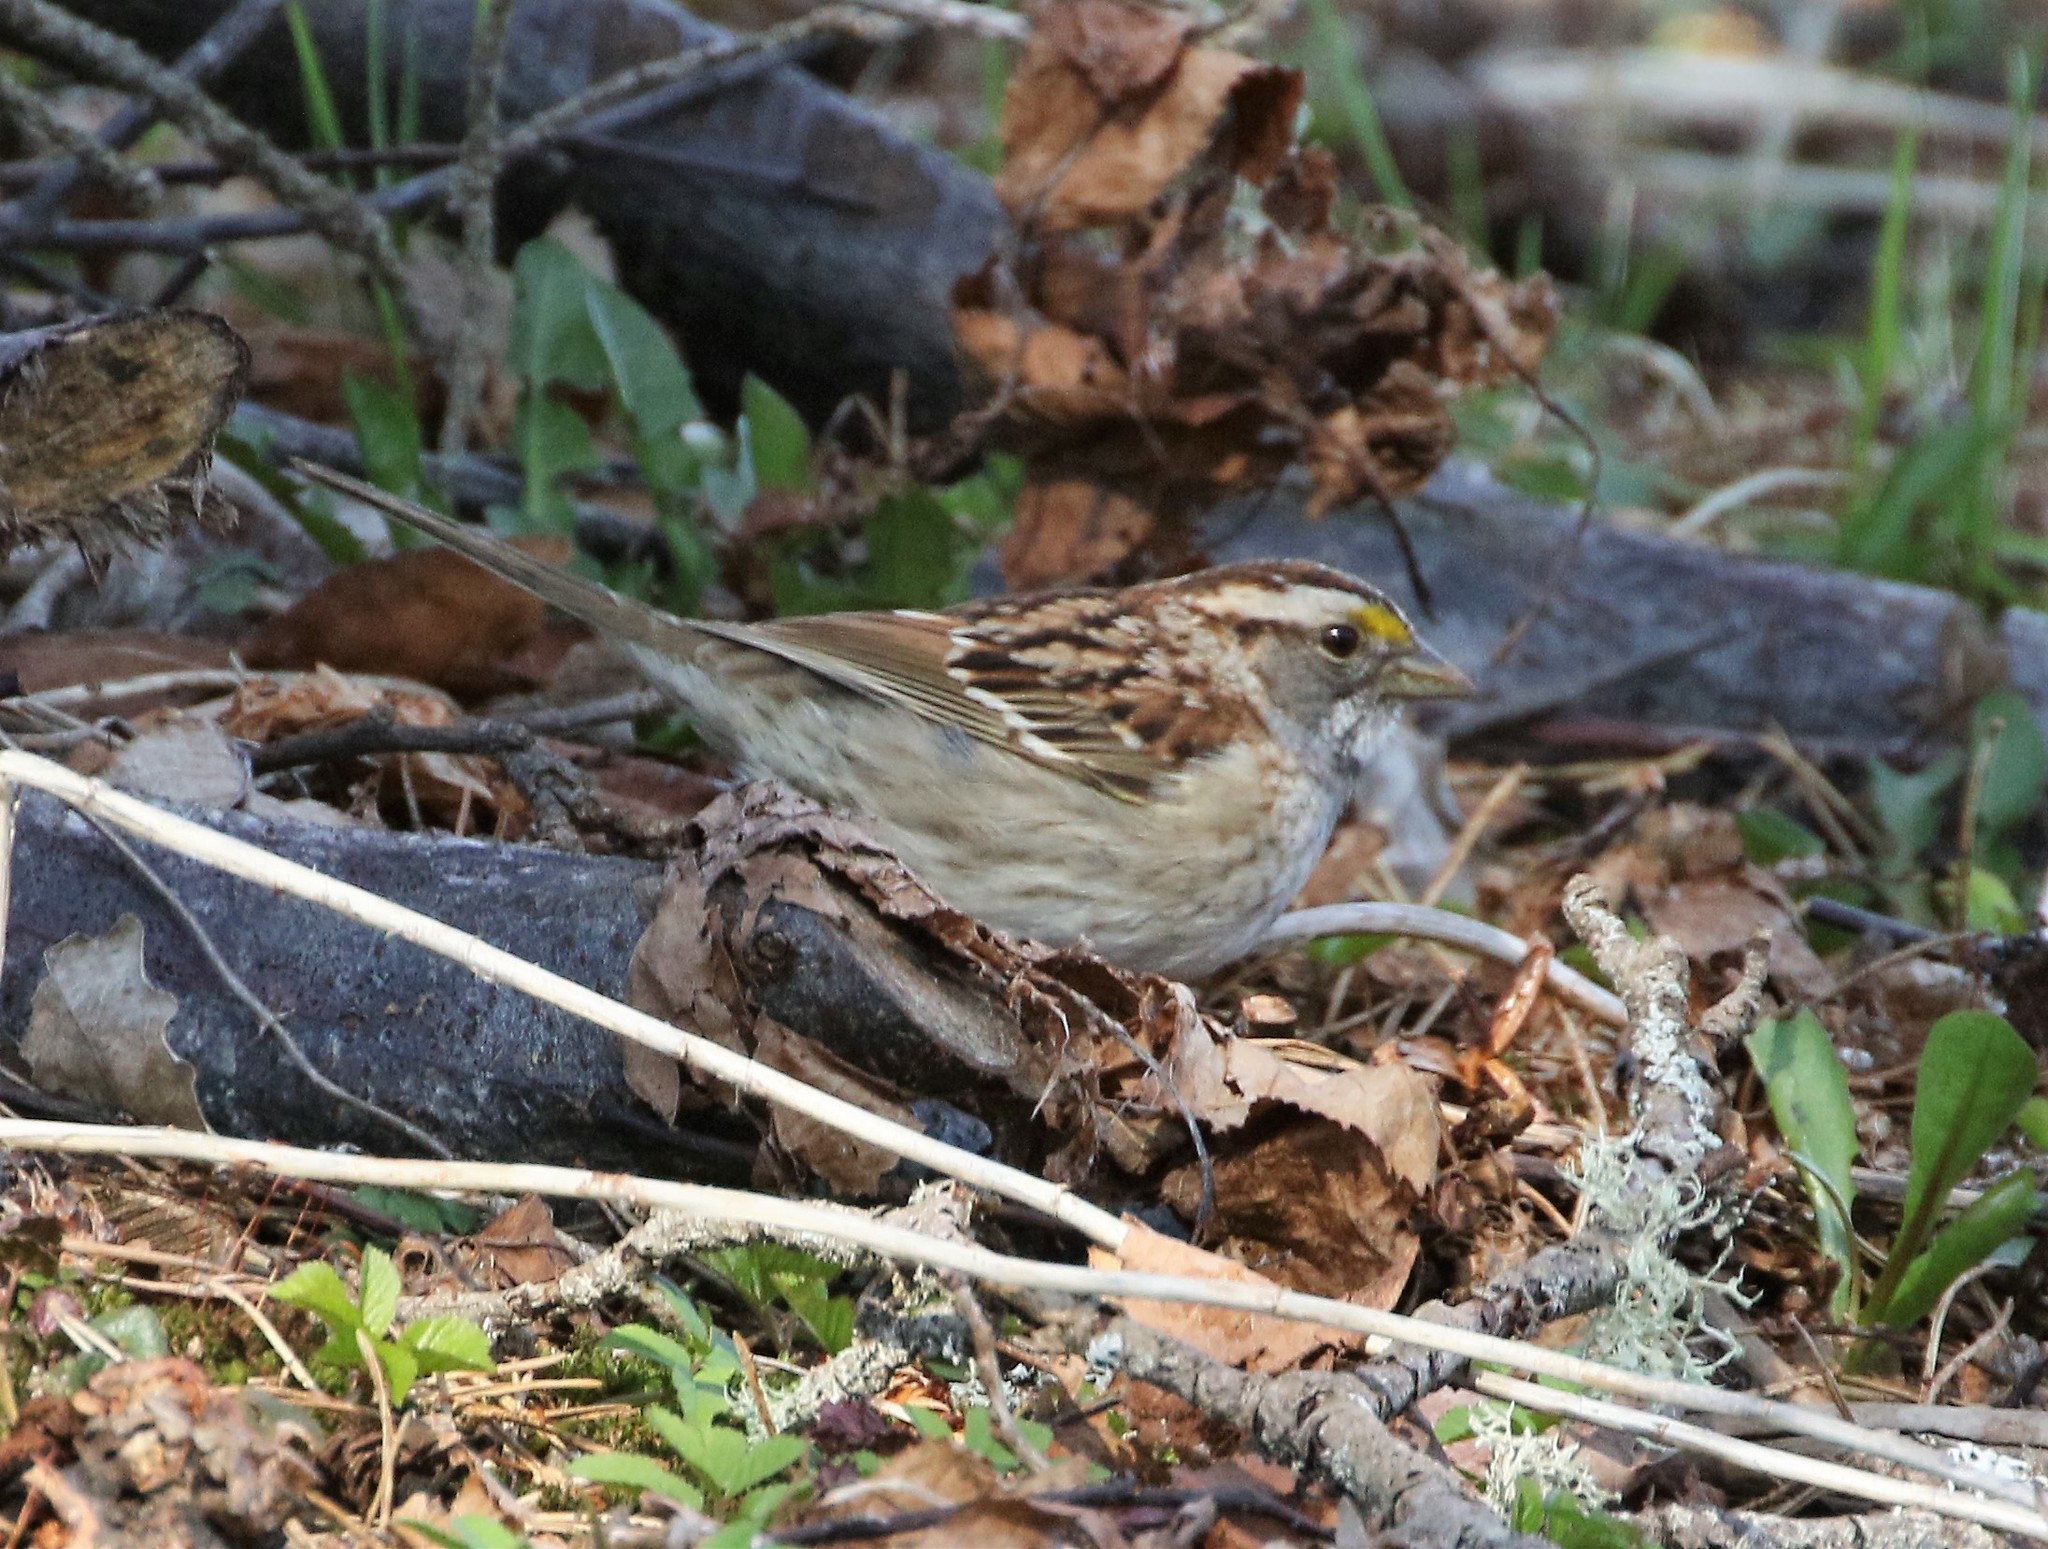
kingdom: Animalia
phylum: Chordata
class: Aves
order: Passeriformes
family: Passerellidae
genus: Zonotrichia
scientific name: Zonotrichia albicollis
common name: White-throated sparrow
